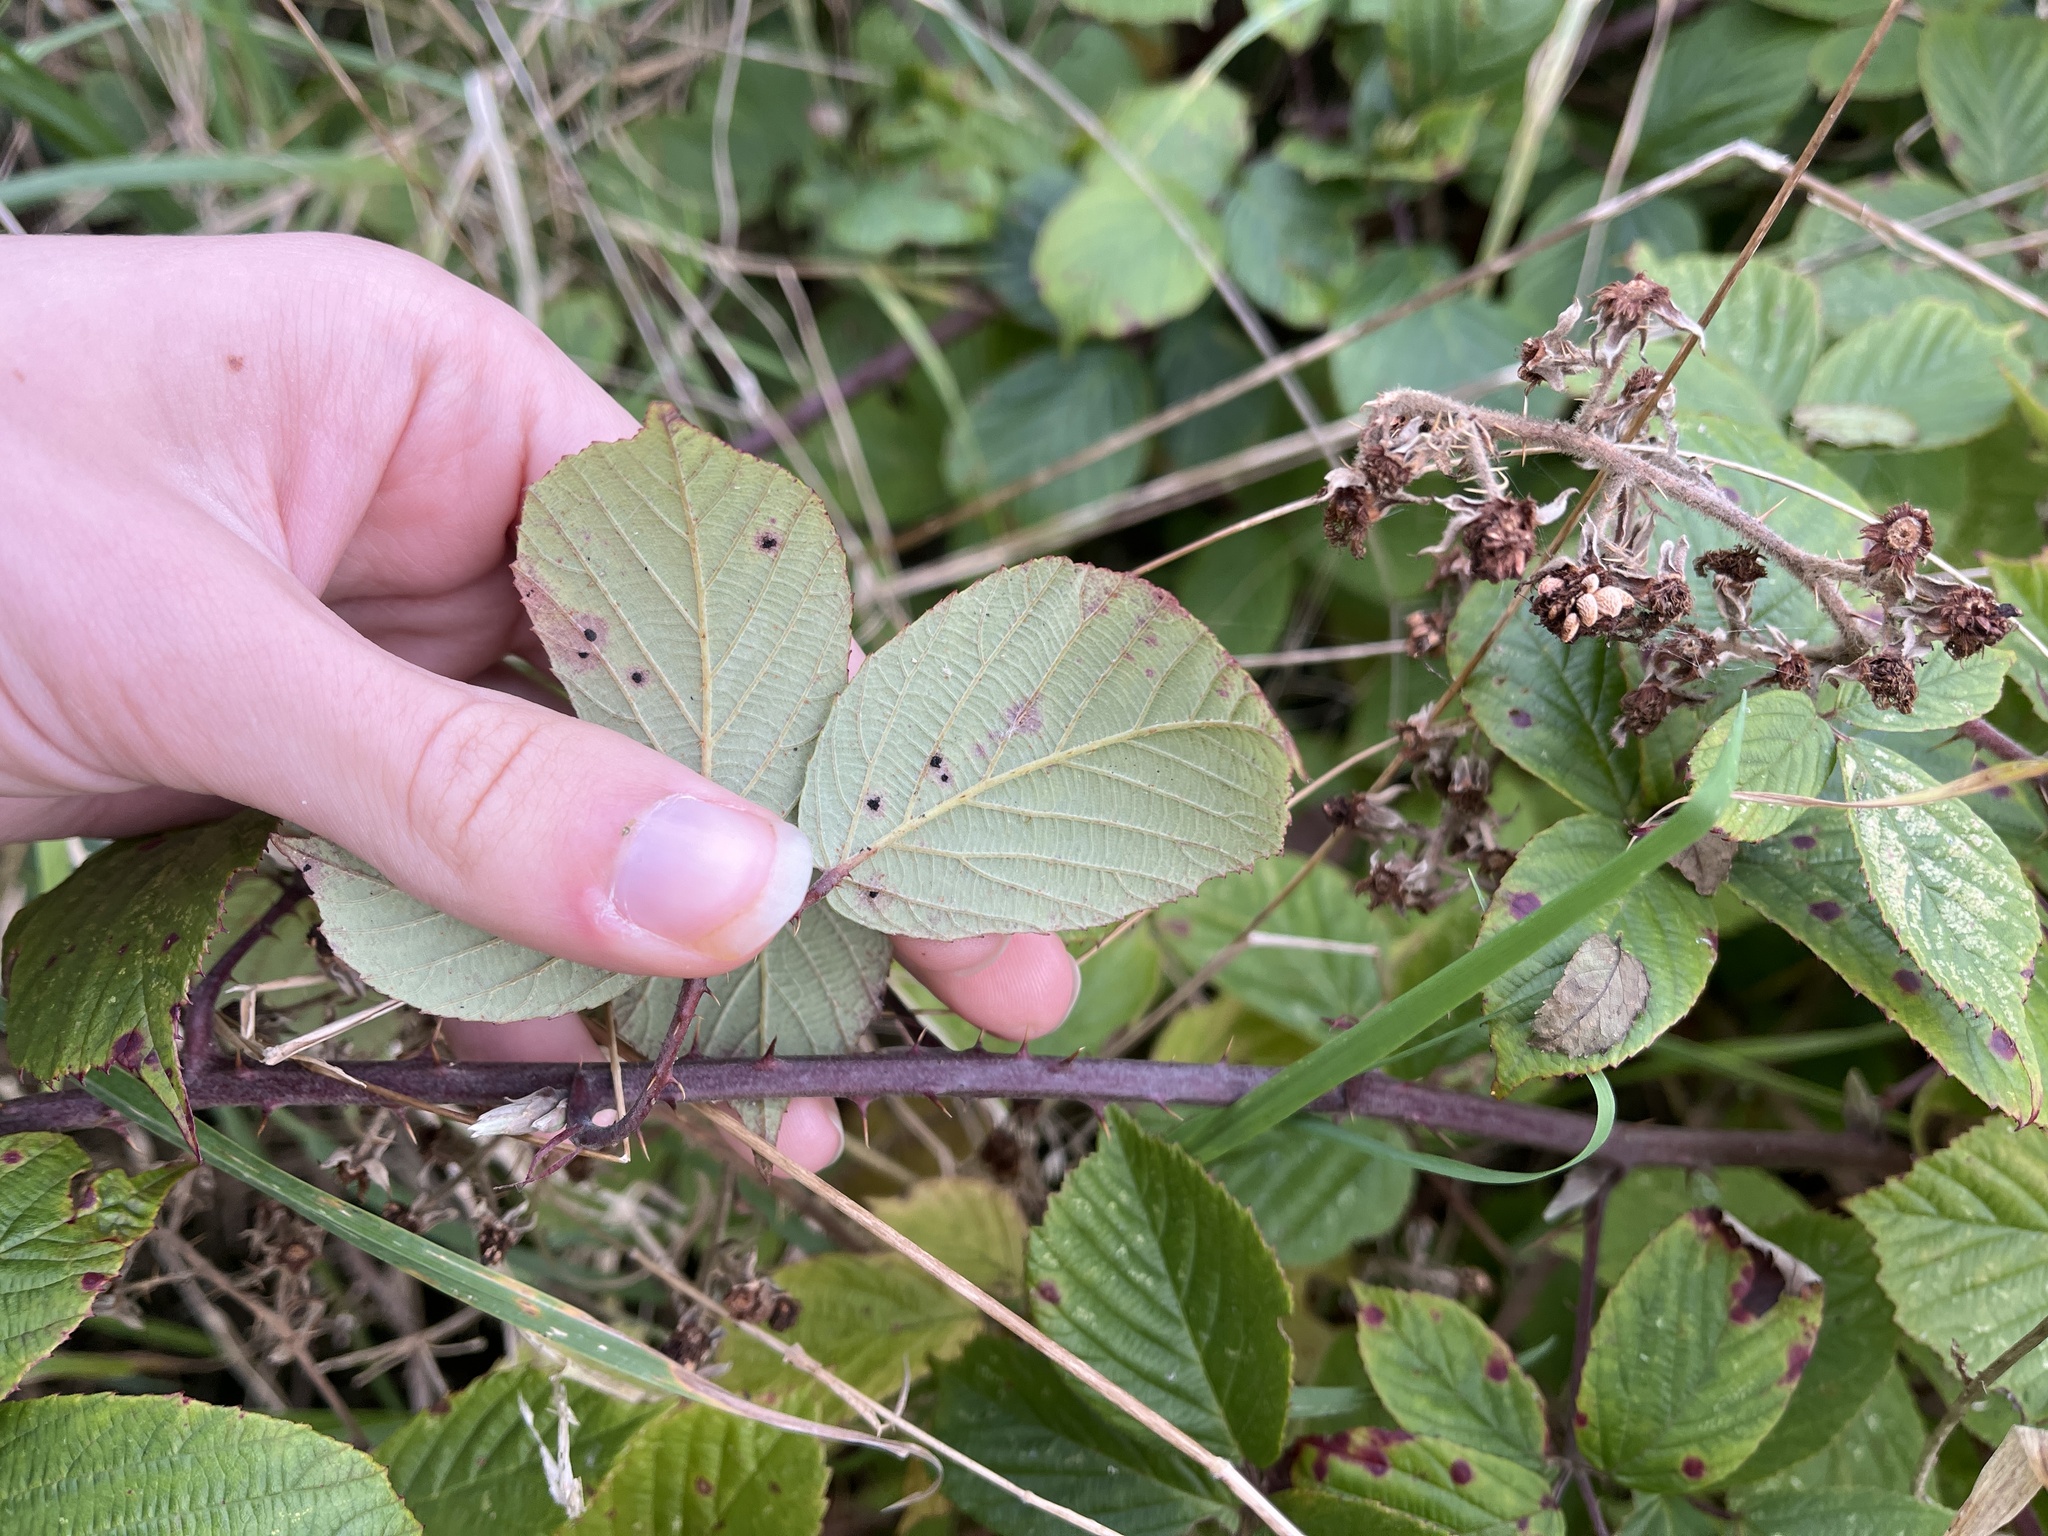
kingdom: Fungi
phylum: Basidiomycota
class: Pucciniomycetes
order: Pucciniales
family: Phragmidiaceae
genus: Phragmidium
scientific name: Phragmidium violaceum
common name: Violet bramble rust
